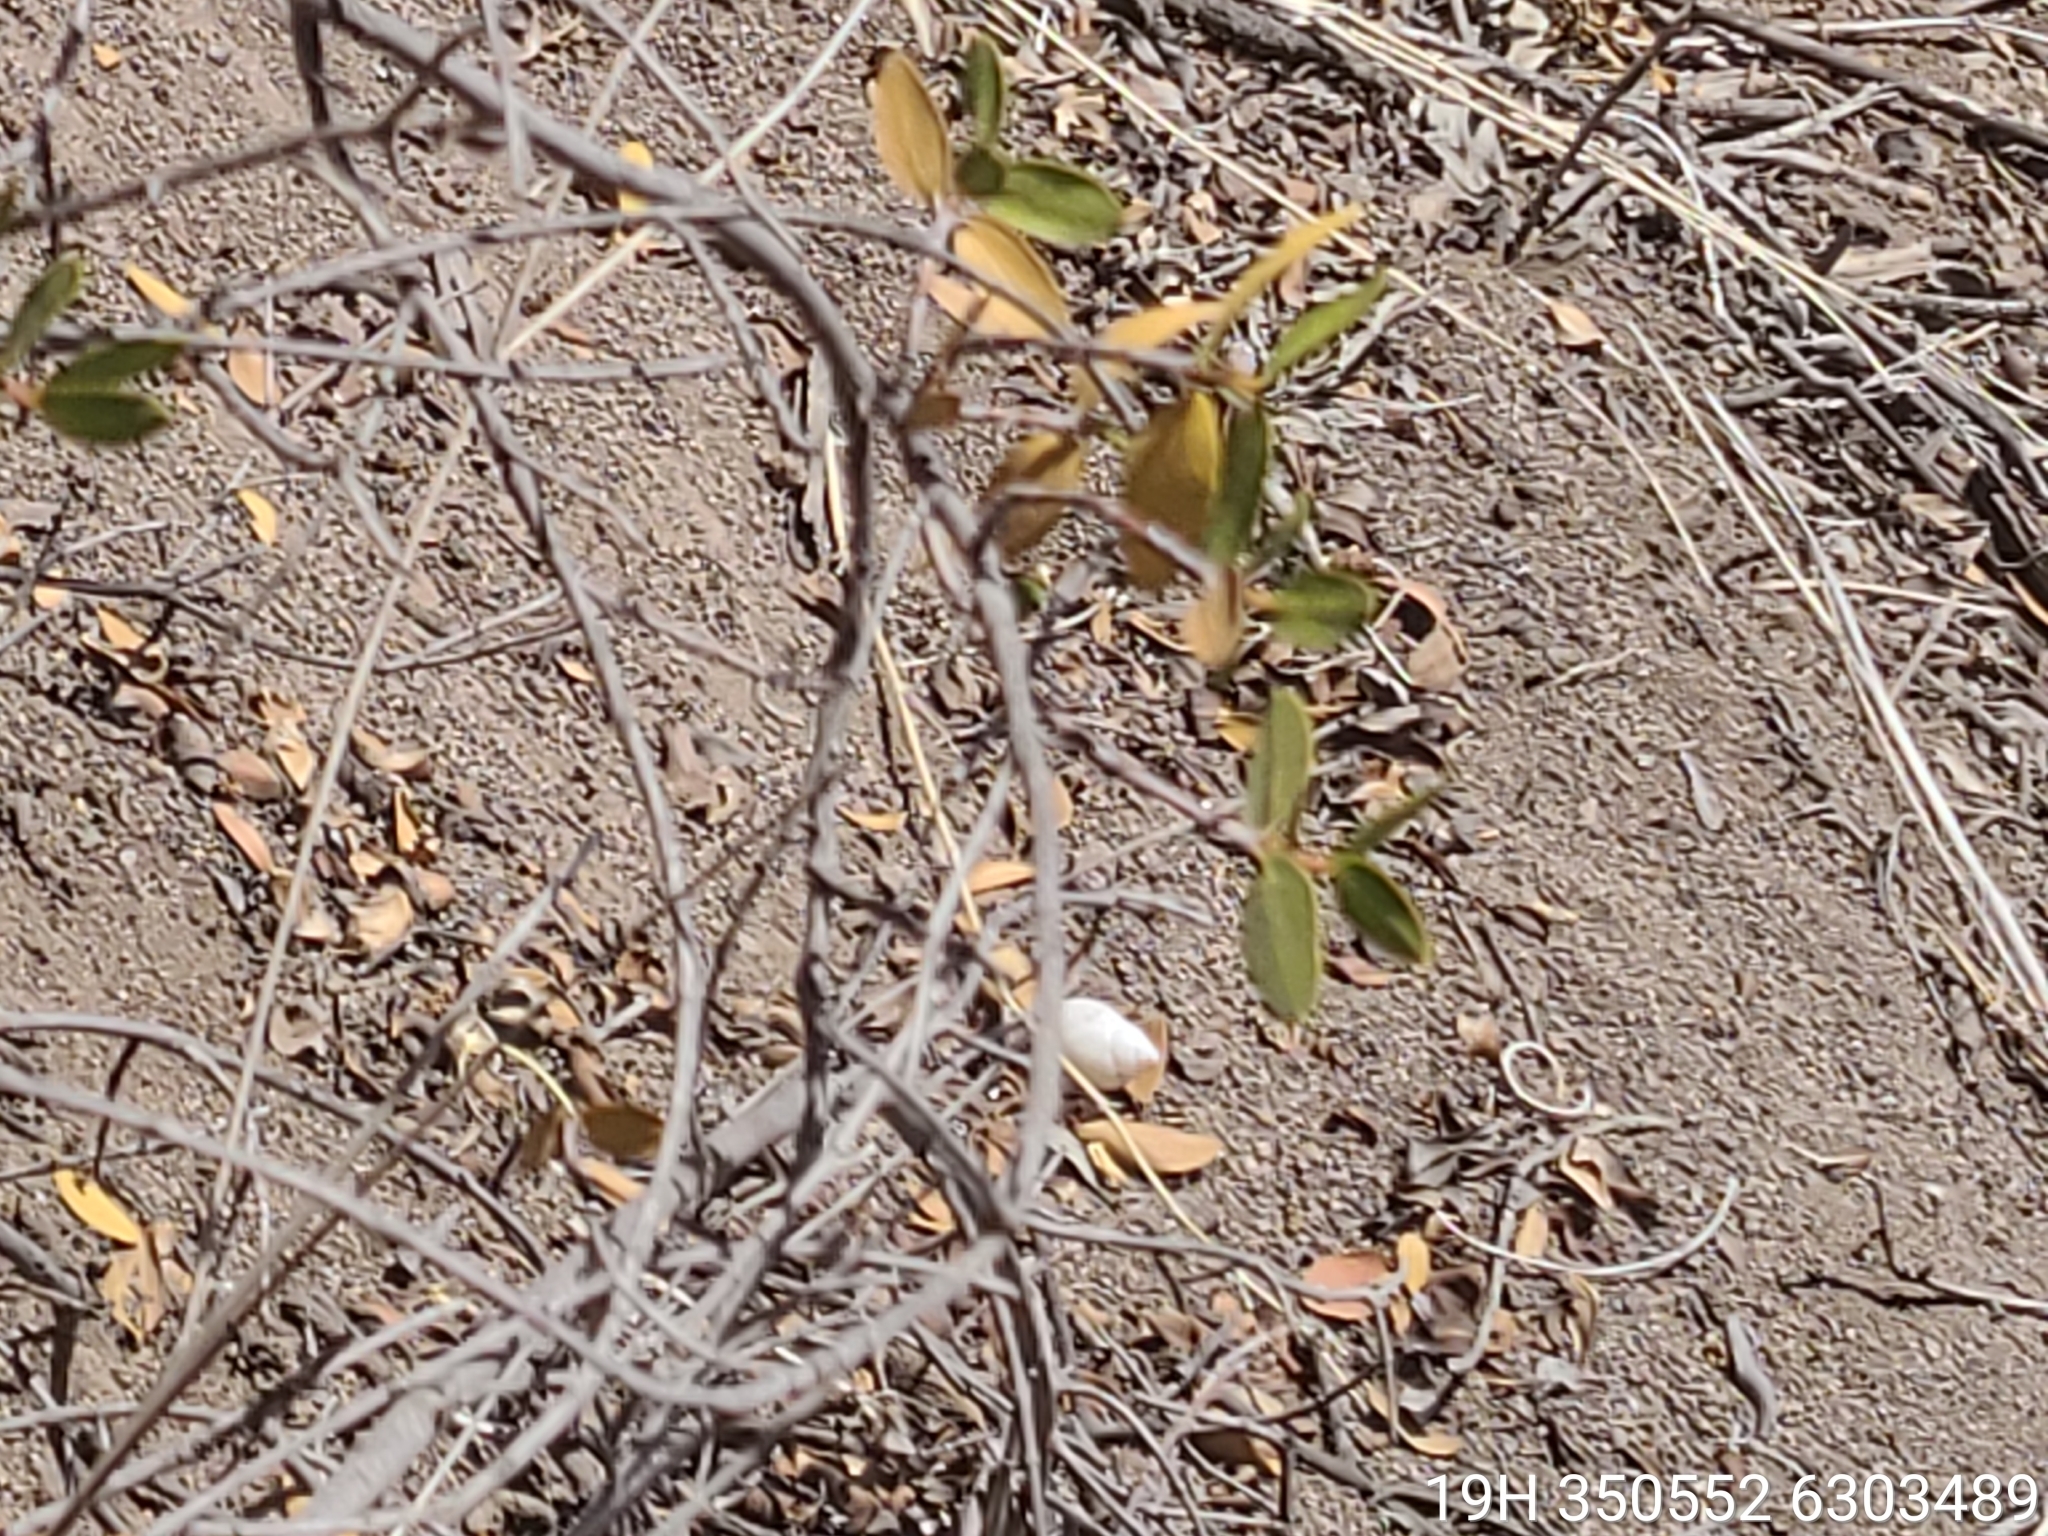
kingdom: Plantae
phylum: Tracheophyta
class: Magnoliopsida
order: Malpighiales
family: Euphorbiaceae
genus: Colliguaja
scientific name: Colliguaja odorifera
